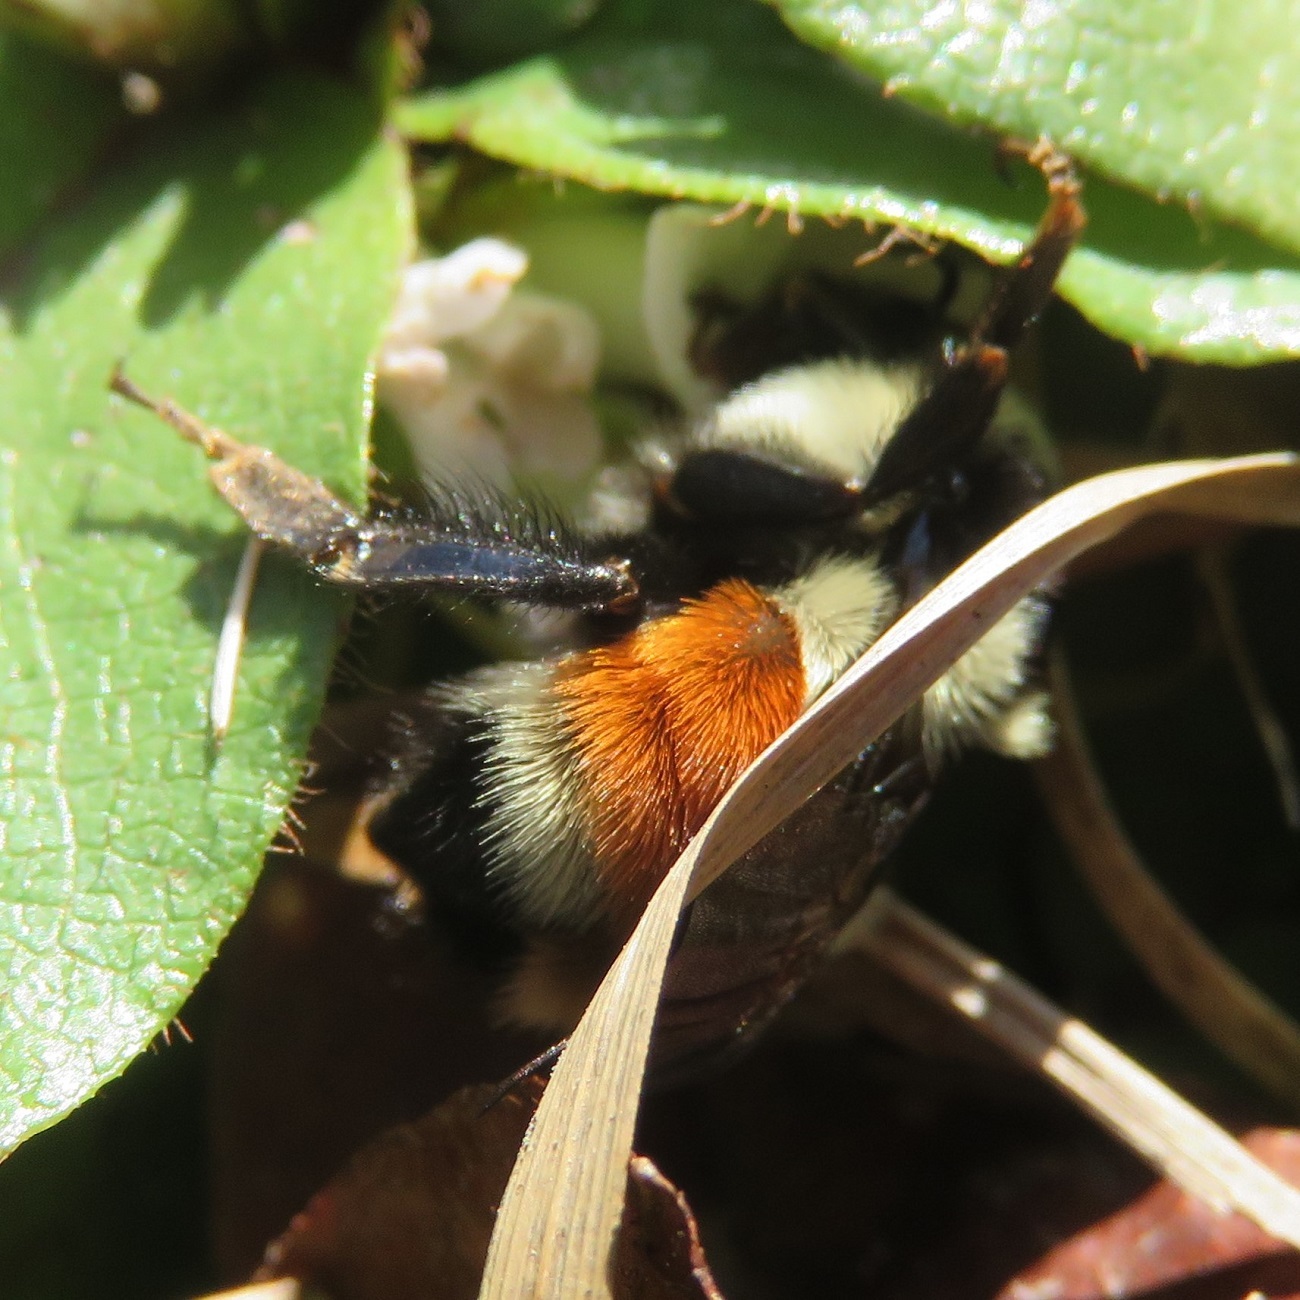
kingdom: Animalia
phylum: Arthropoda
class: Insecta
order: Hymenoptera
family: Apidae
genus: Bombus
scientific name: Bombus ternarius
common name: Tri-colored bumble bee
